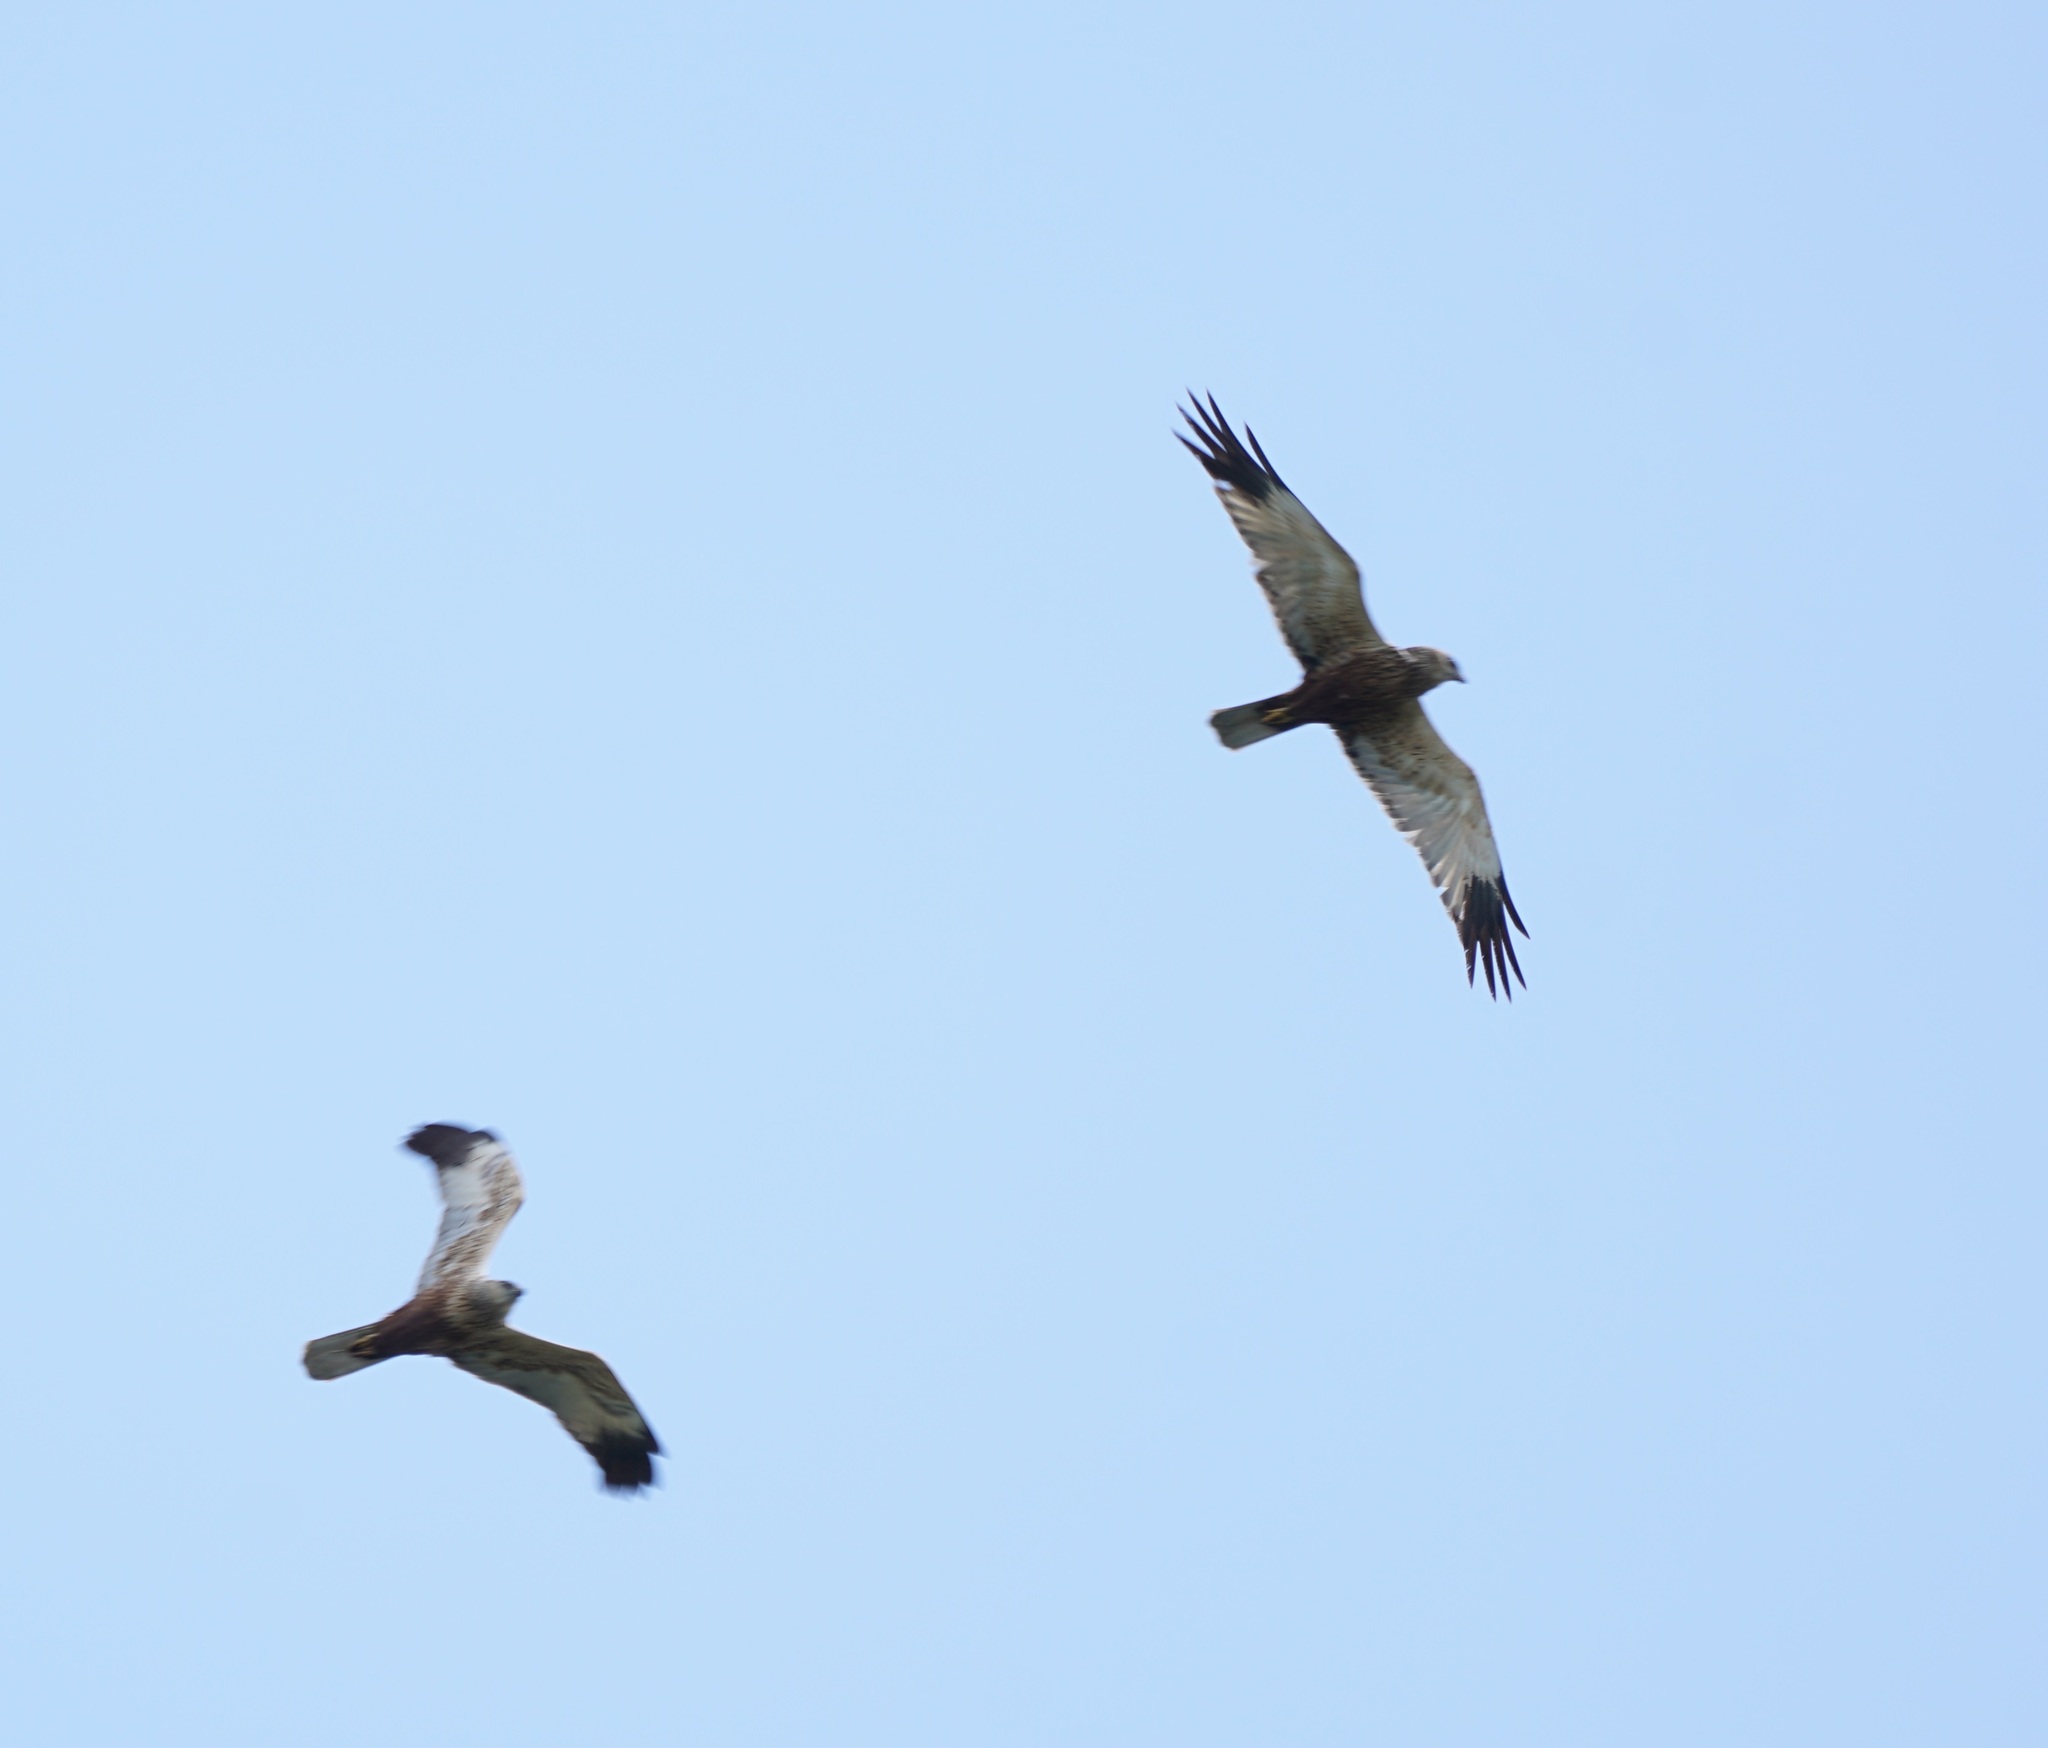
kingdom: Animalia
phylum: Chordata
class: Aves
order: Accipitriformes
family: Accipitridae
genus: Circus
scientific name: Circus aeruginosus
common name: Western marsh harrier
